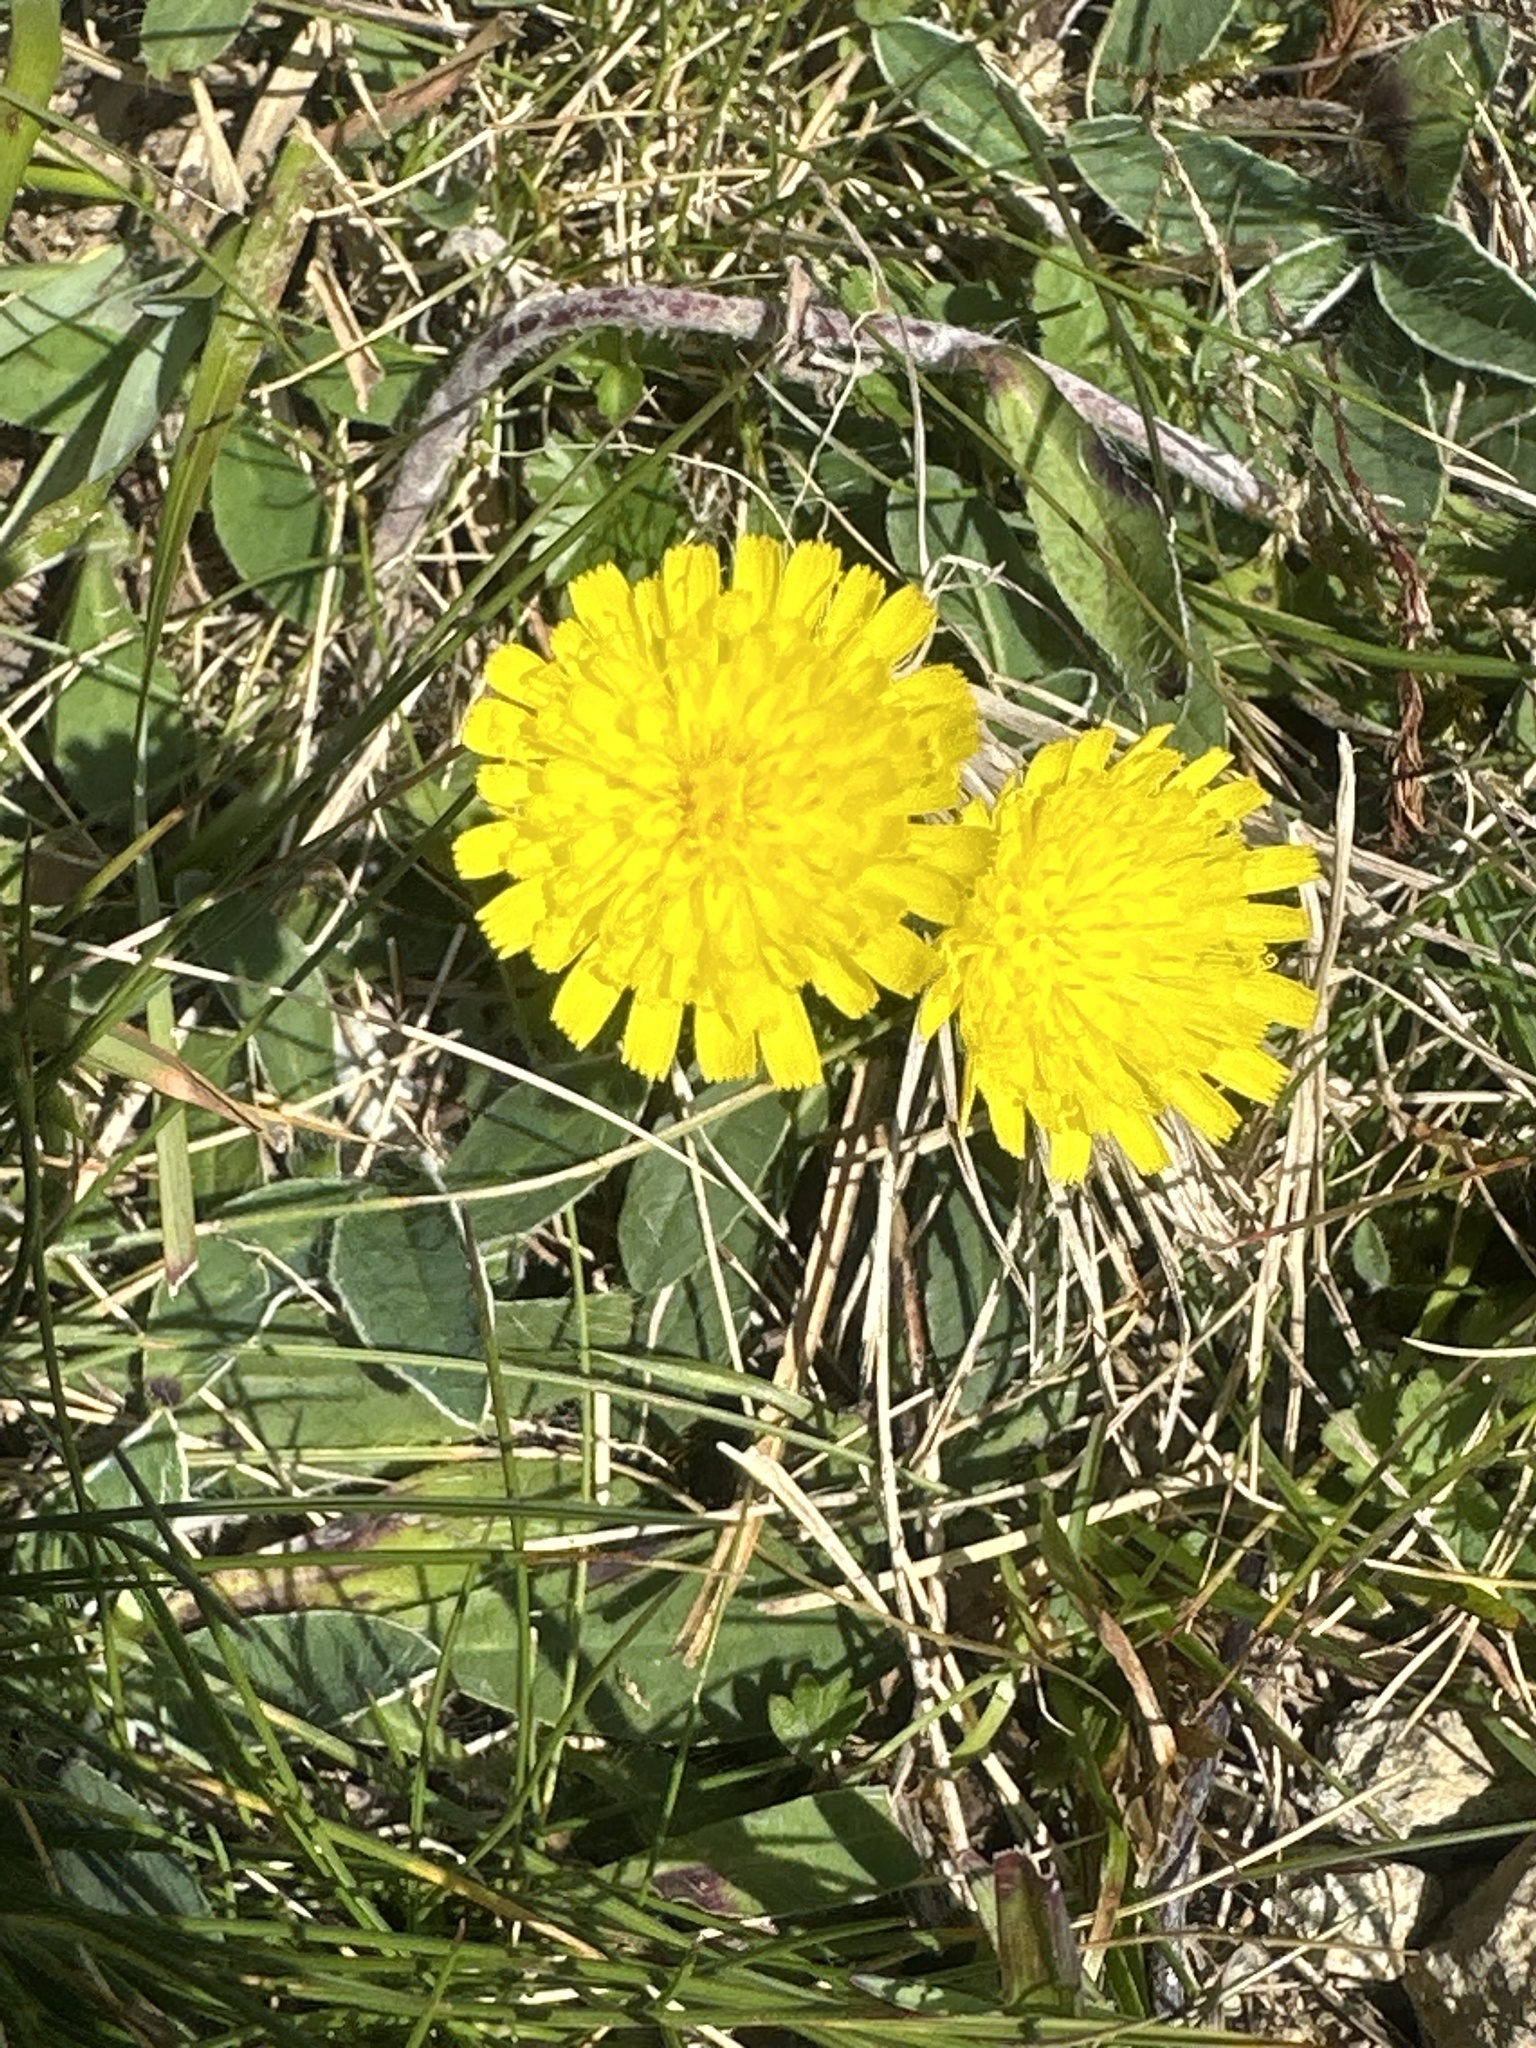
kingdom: Plantae
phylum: Tracheophyta
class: Magnoliopsida
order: Asterales
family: Asteraceae
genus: Pilosella
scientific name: Pilosella officinarum
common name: Mouse-ear hawkweed
